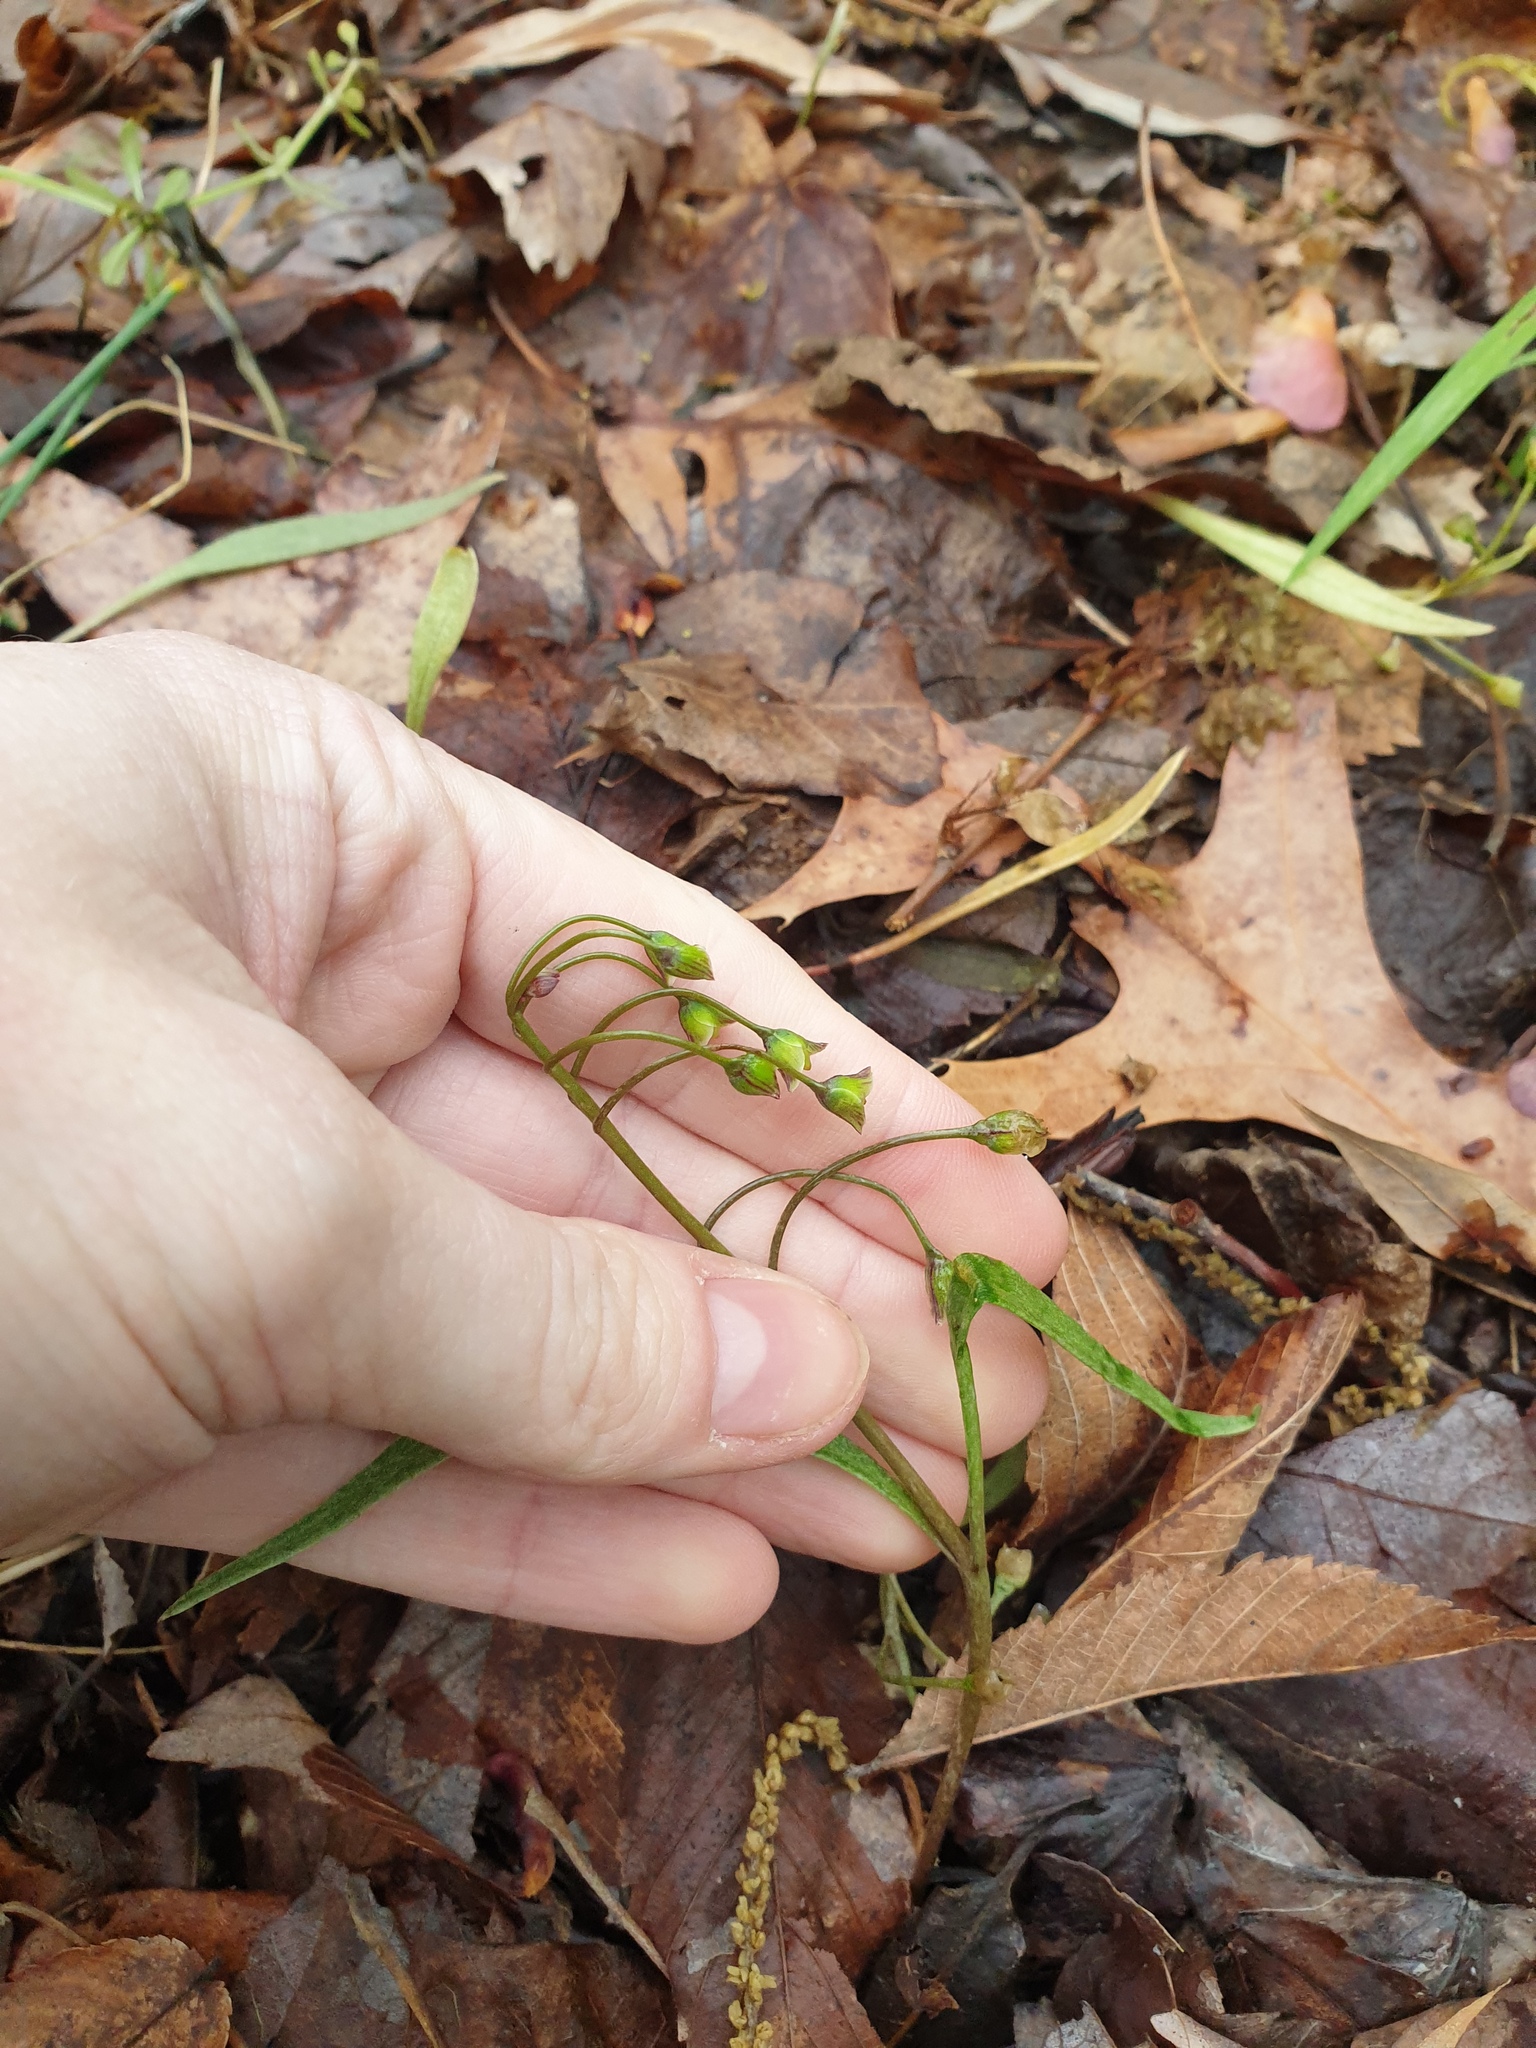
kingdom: Plantae
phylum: Tracheophyta
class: Magnoliopsida
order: Caryophyllales
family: Montiaceae
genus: Claytonia
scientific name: Claytonia virginica
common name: Virginia springbeauty
